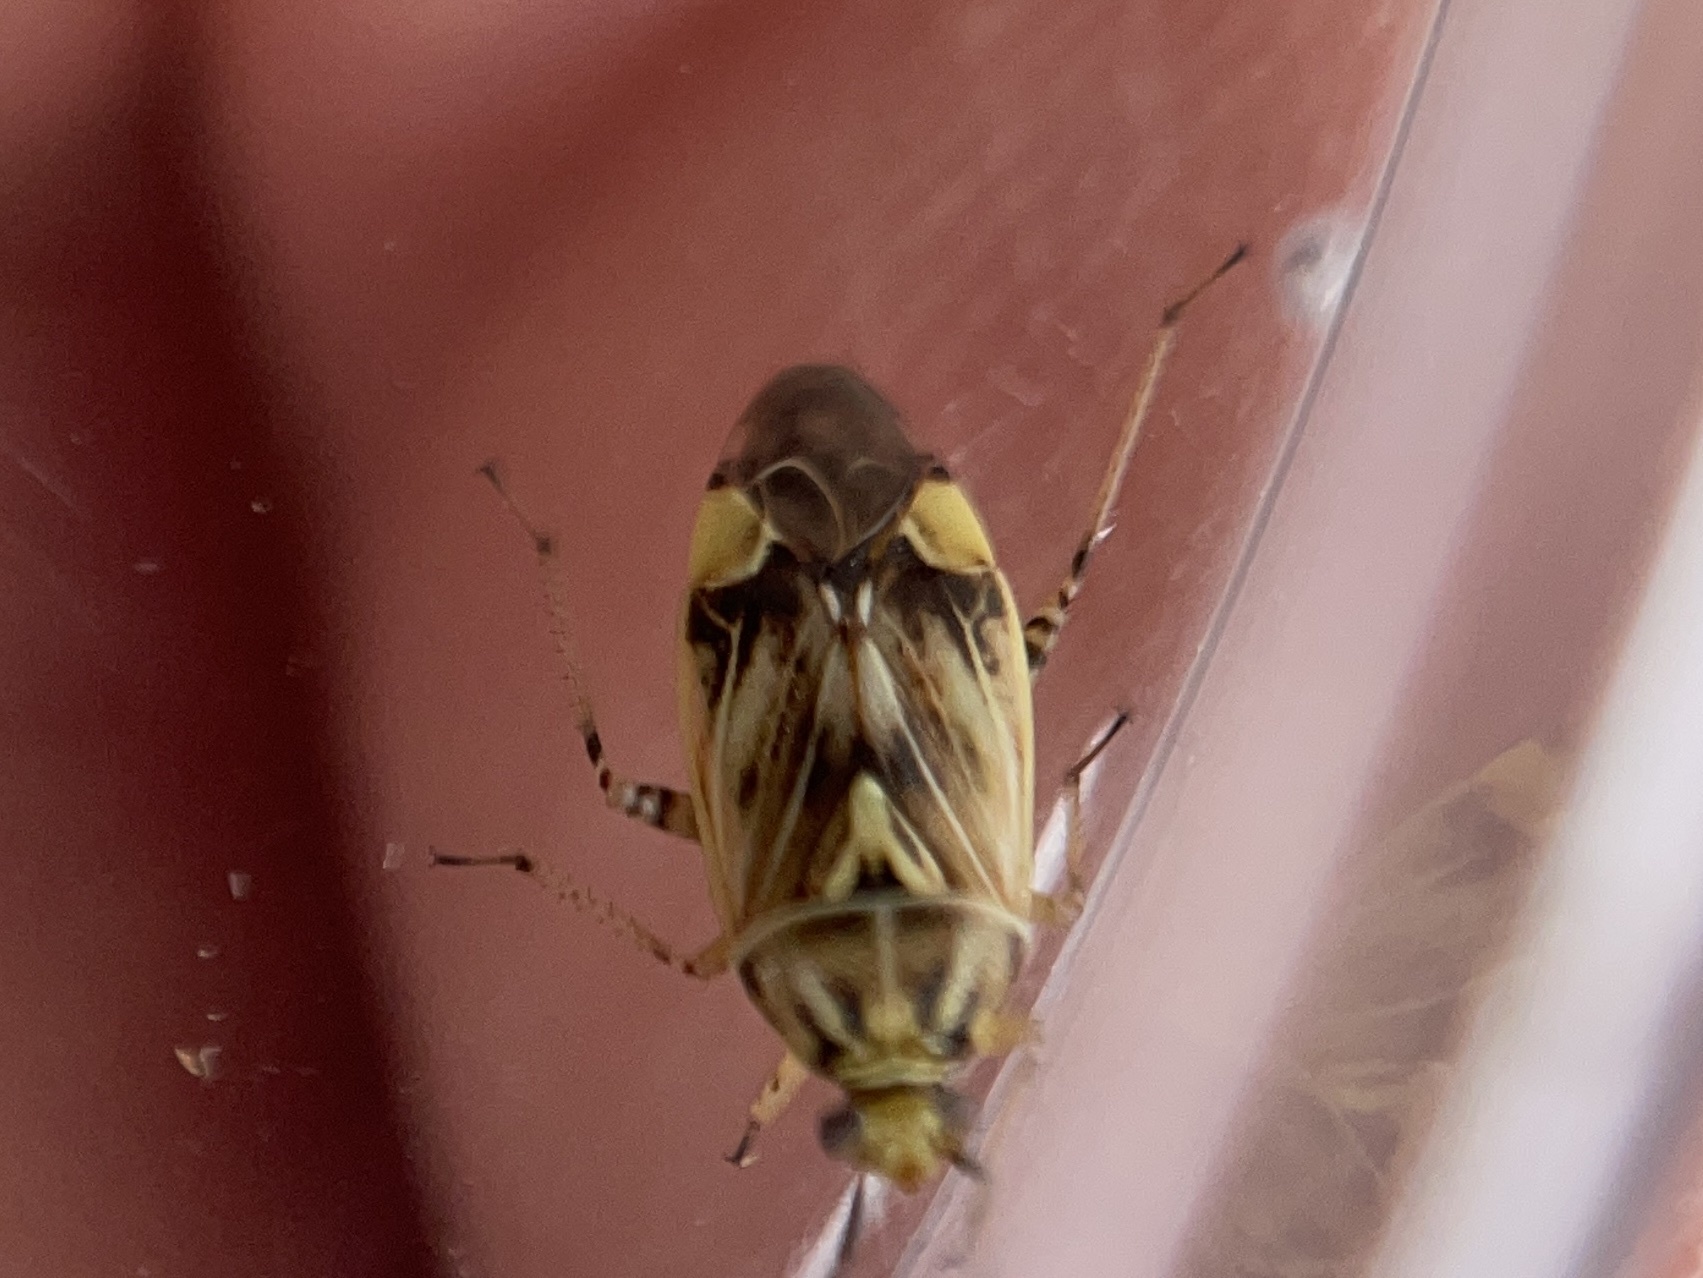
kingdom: Animalia
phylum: Arthropoda
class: Insecta
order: Hemiptera
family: Miridae
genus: Lygus
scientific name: Lygus lineolaris
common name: North american tarnished plant bug
